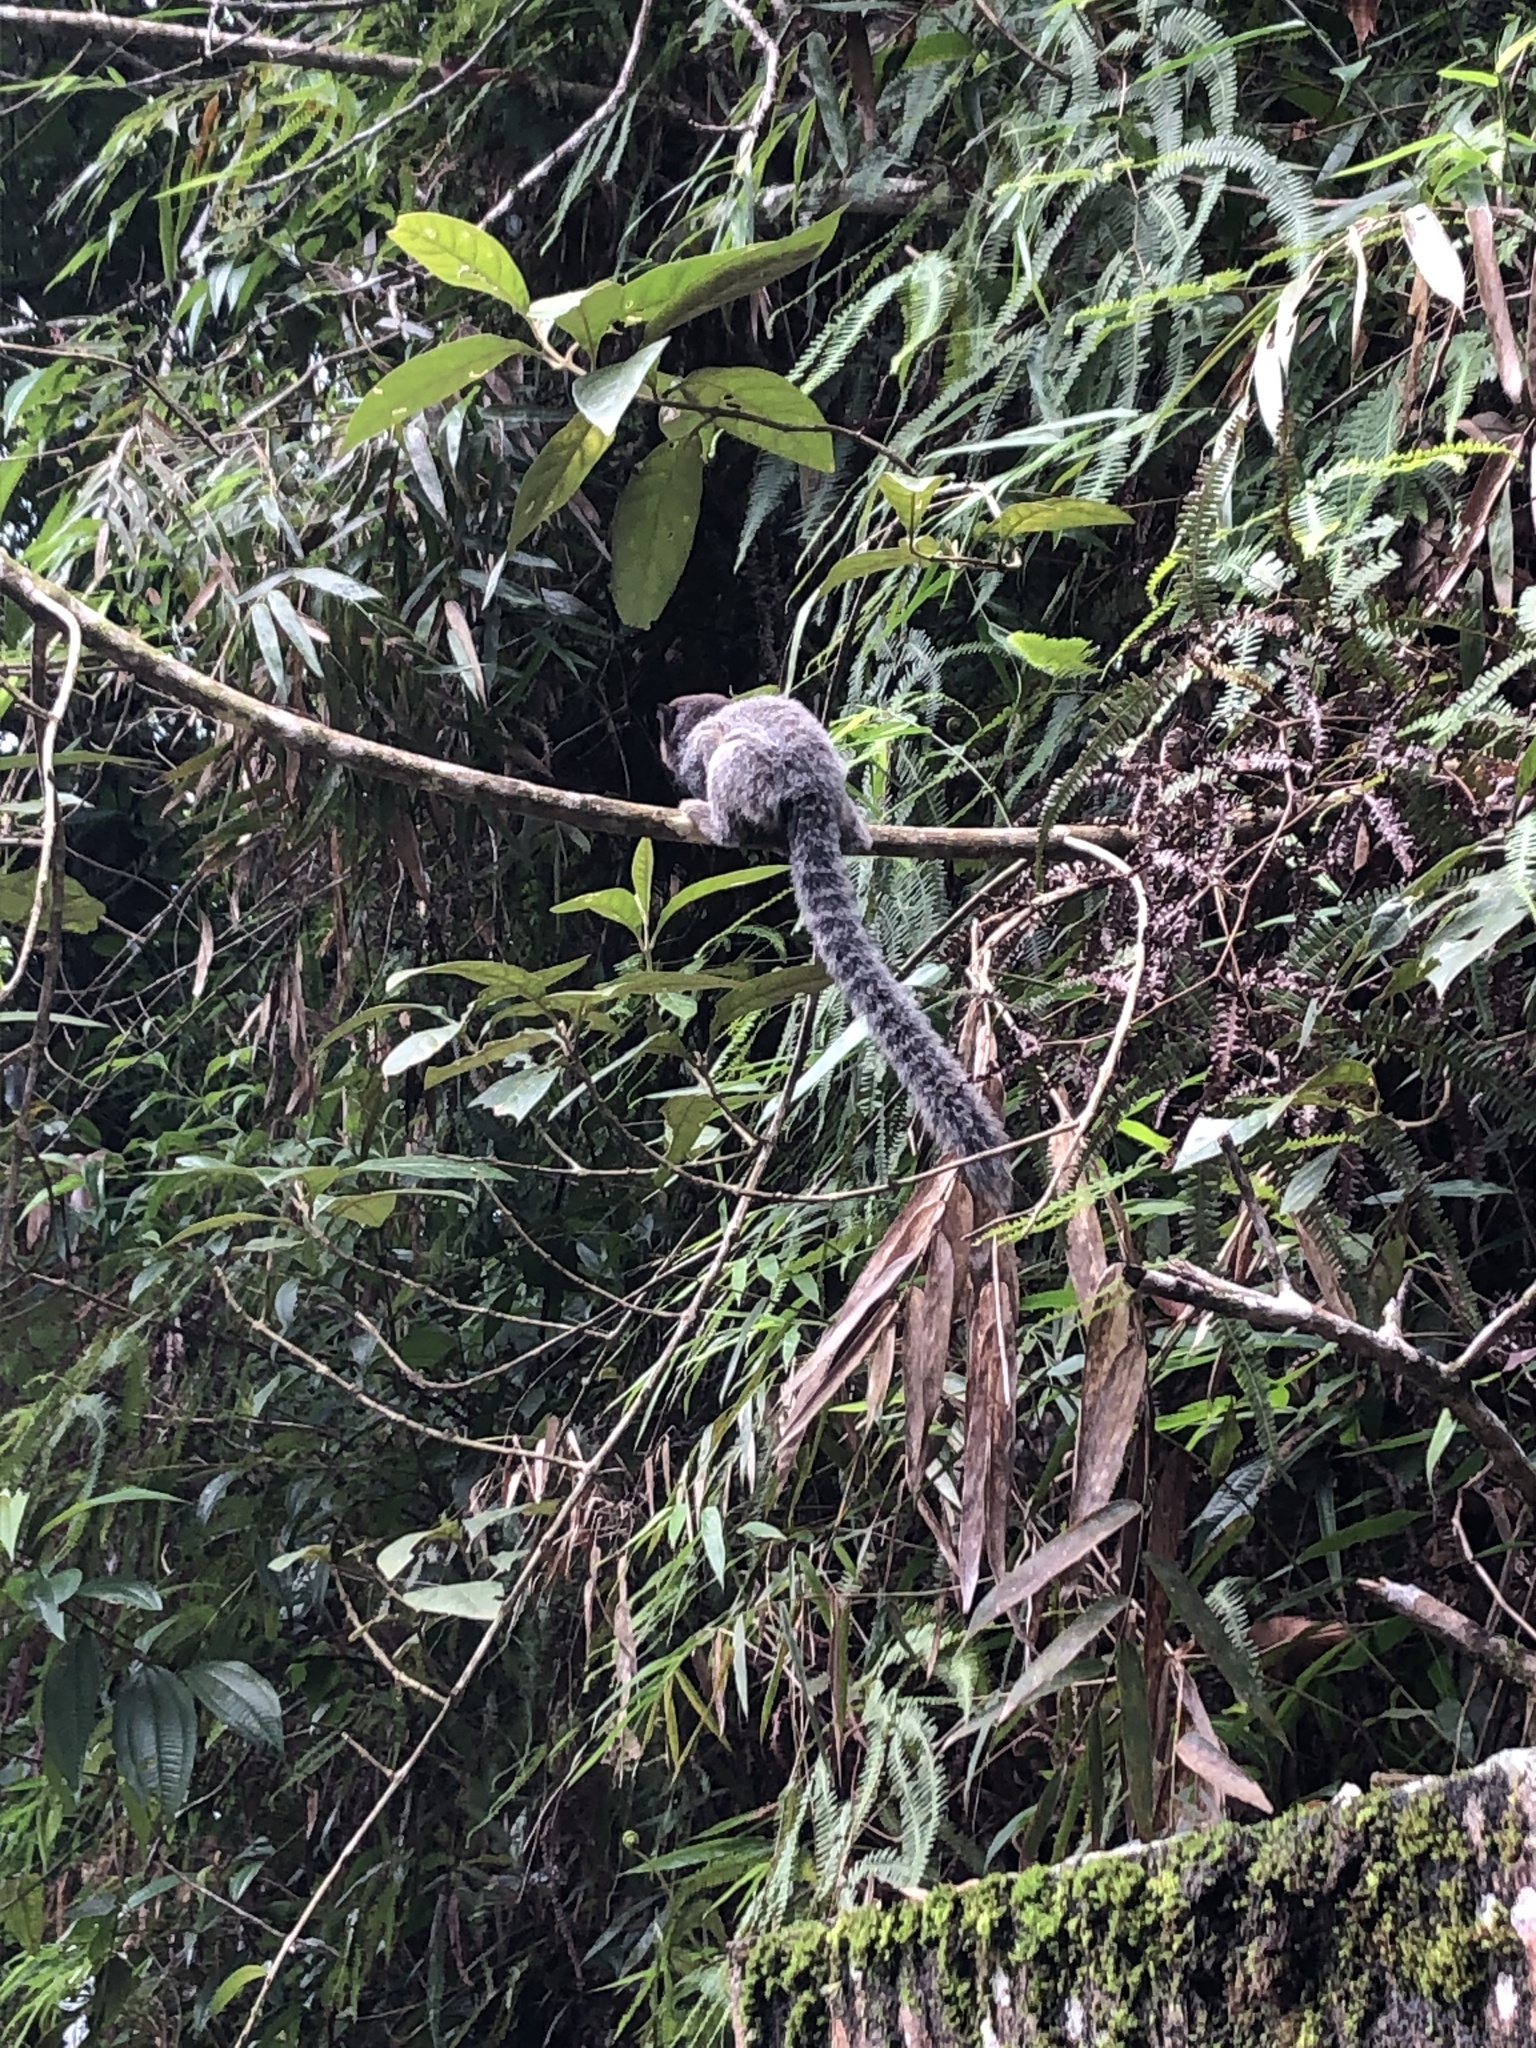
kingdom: Animalia
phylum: Chordata
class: Mammalia
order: Primates
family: Callitrichidae
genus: Callithrix
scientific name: Callithrix penicillata
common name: Black-tufted marmoset
